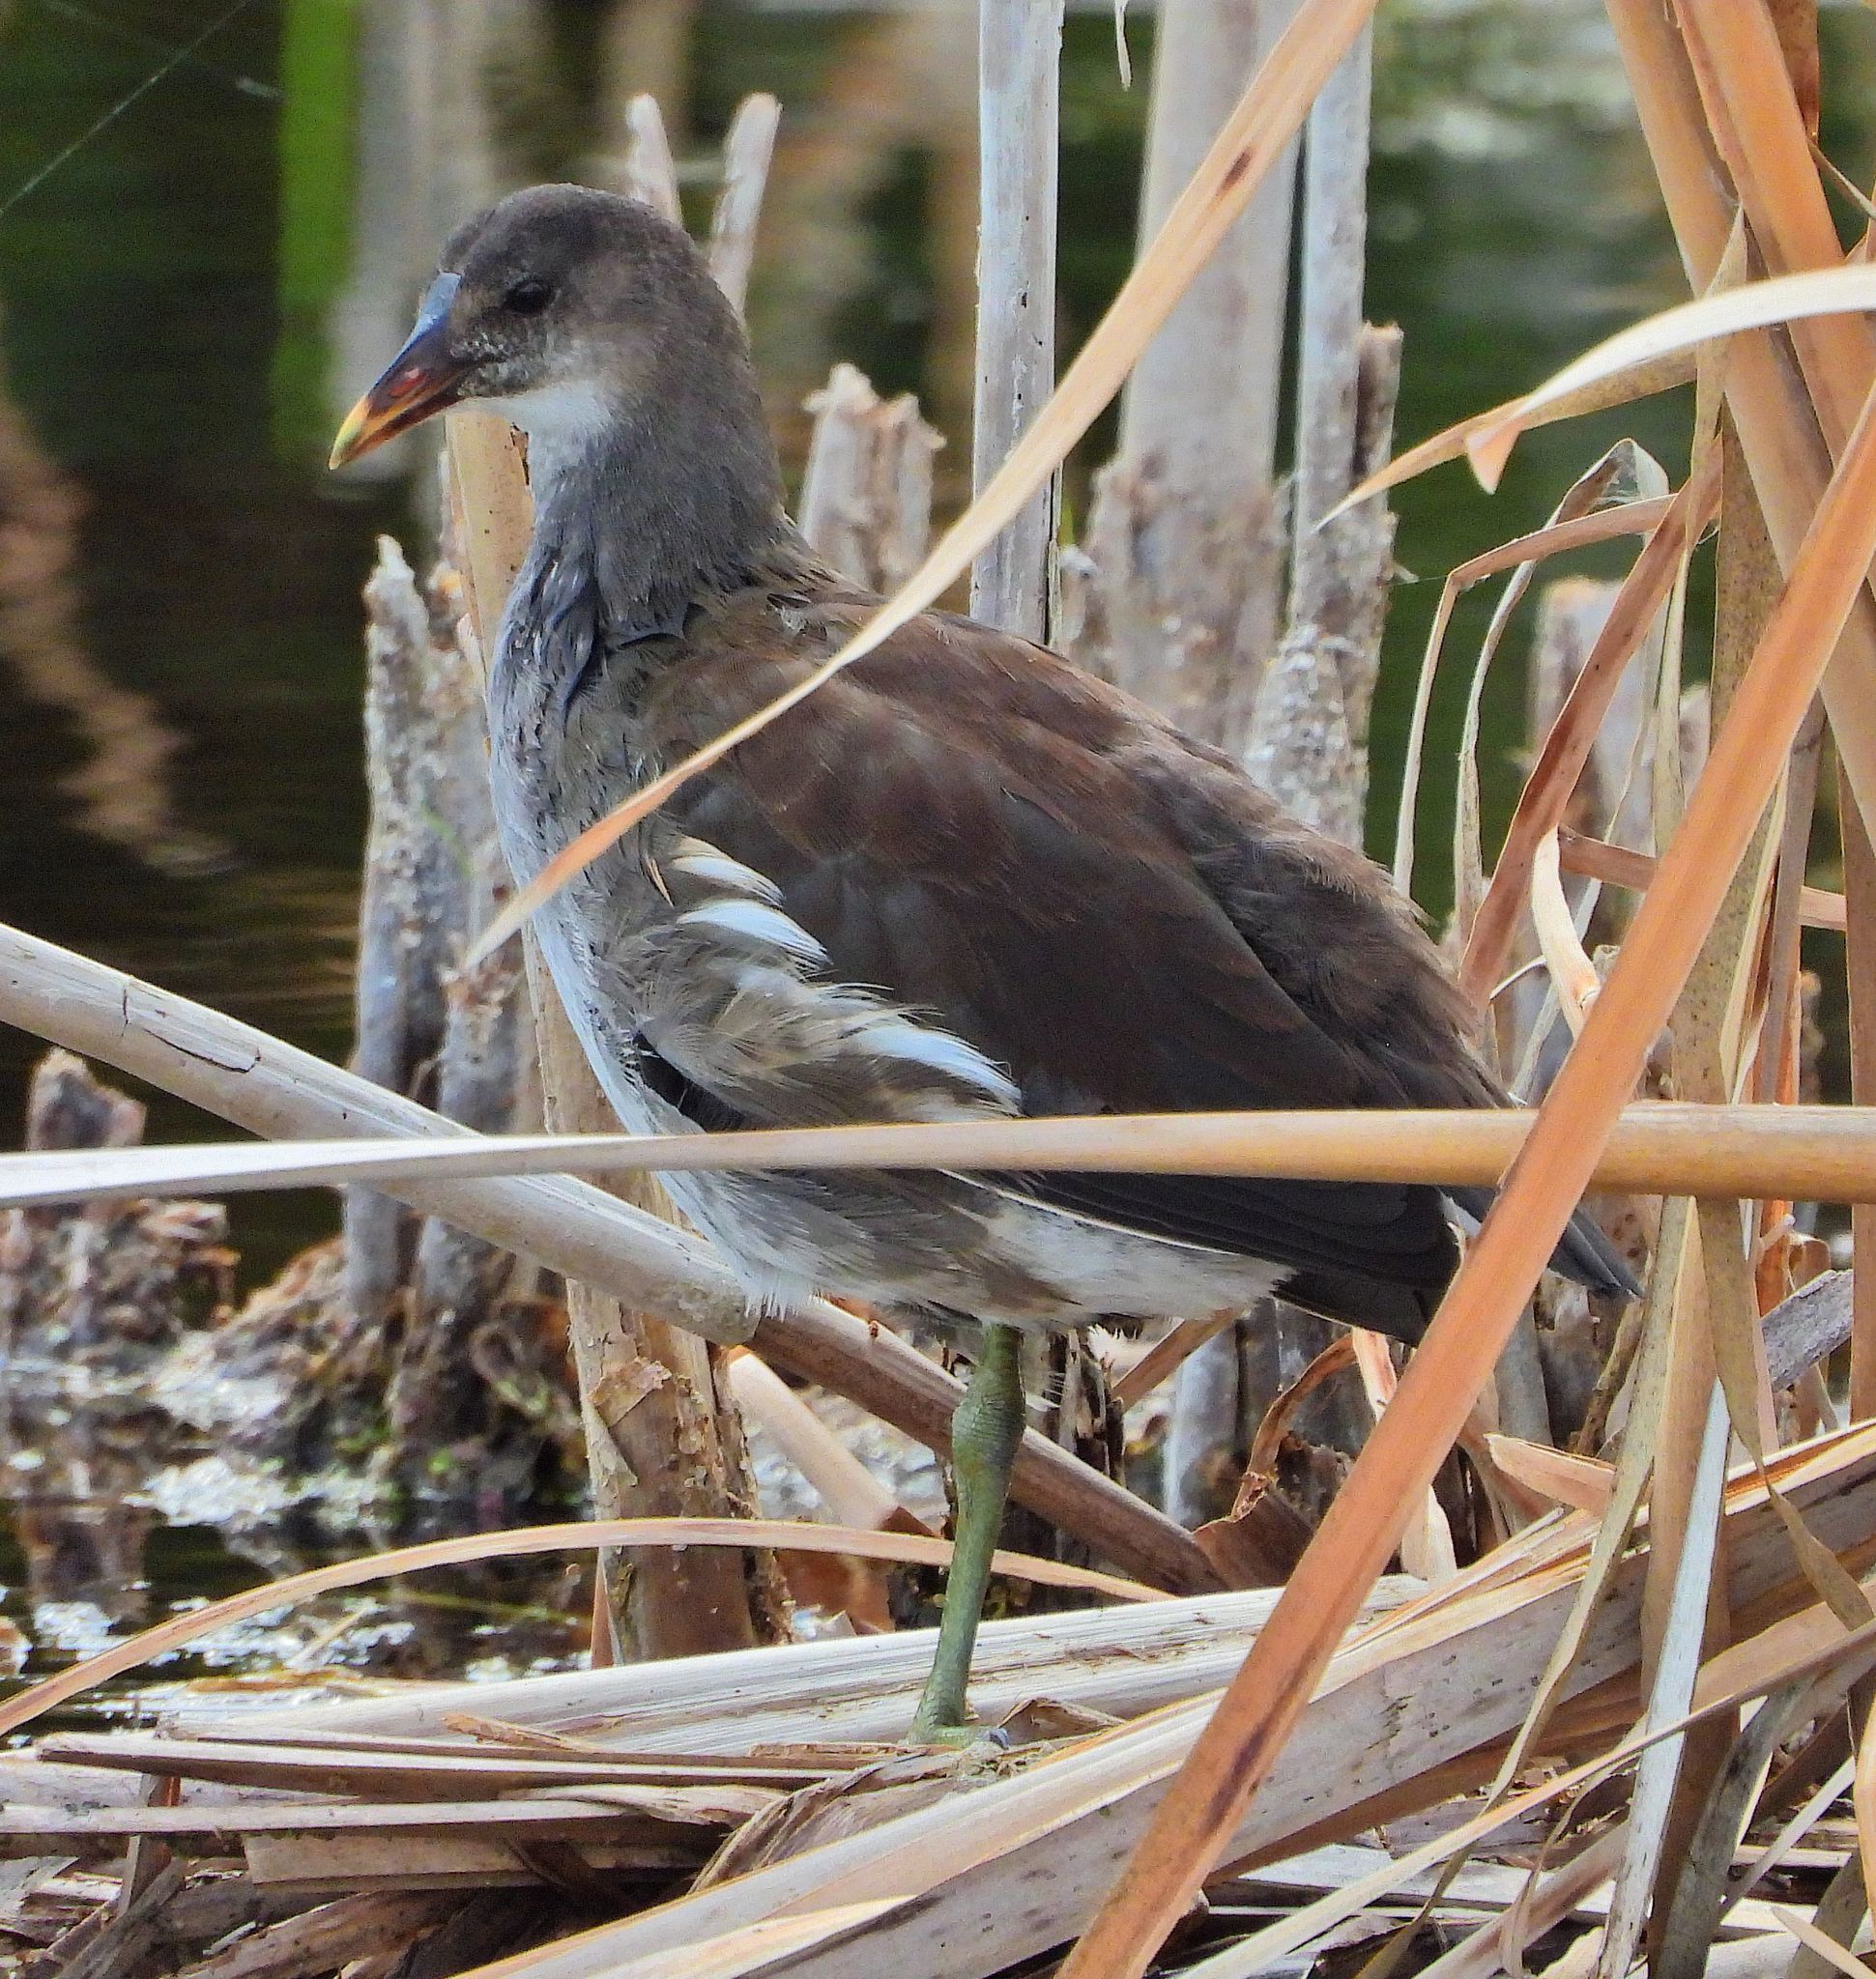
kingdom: Animalia
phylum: Chordata
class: Aves
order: Gruiformes
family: Rallidae
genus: Gallinula
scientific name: Gallinula chloropus
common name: Common moorhen
